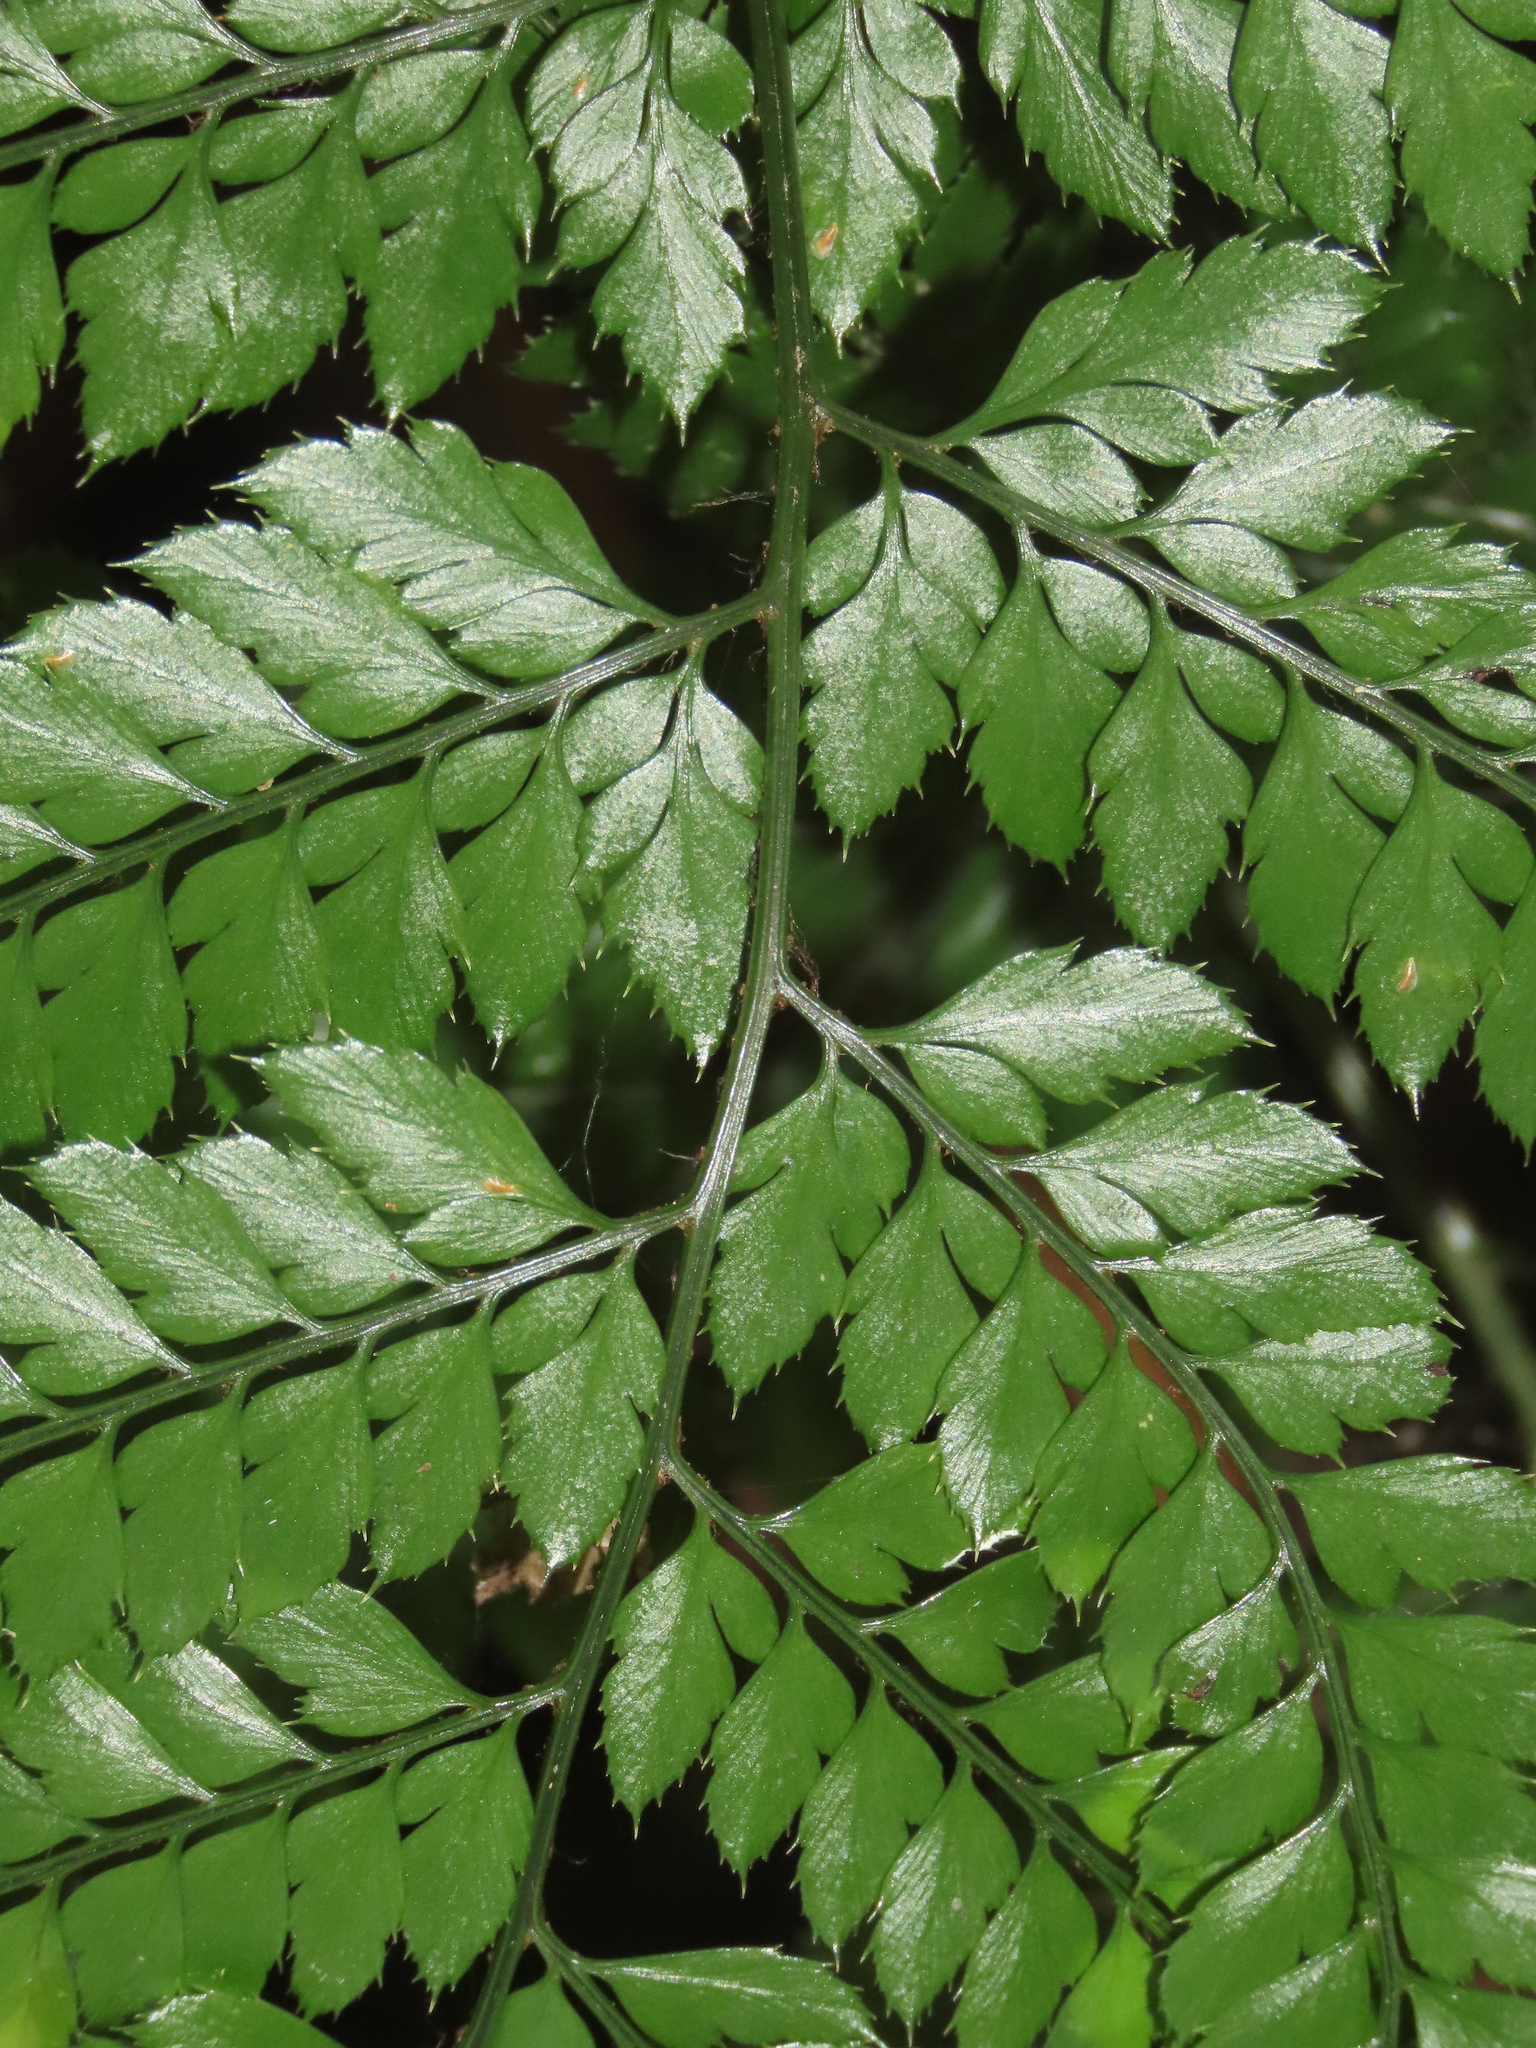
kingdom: Plantae
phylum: Tracheophyta
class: Polypodiopsida
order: Polypodiales
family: Dryopteridaceae
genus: Arachniodes
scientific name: Arachniodes aristata
